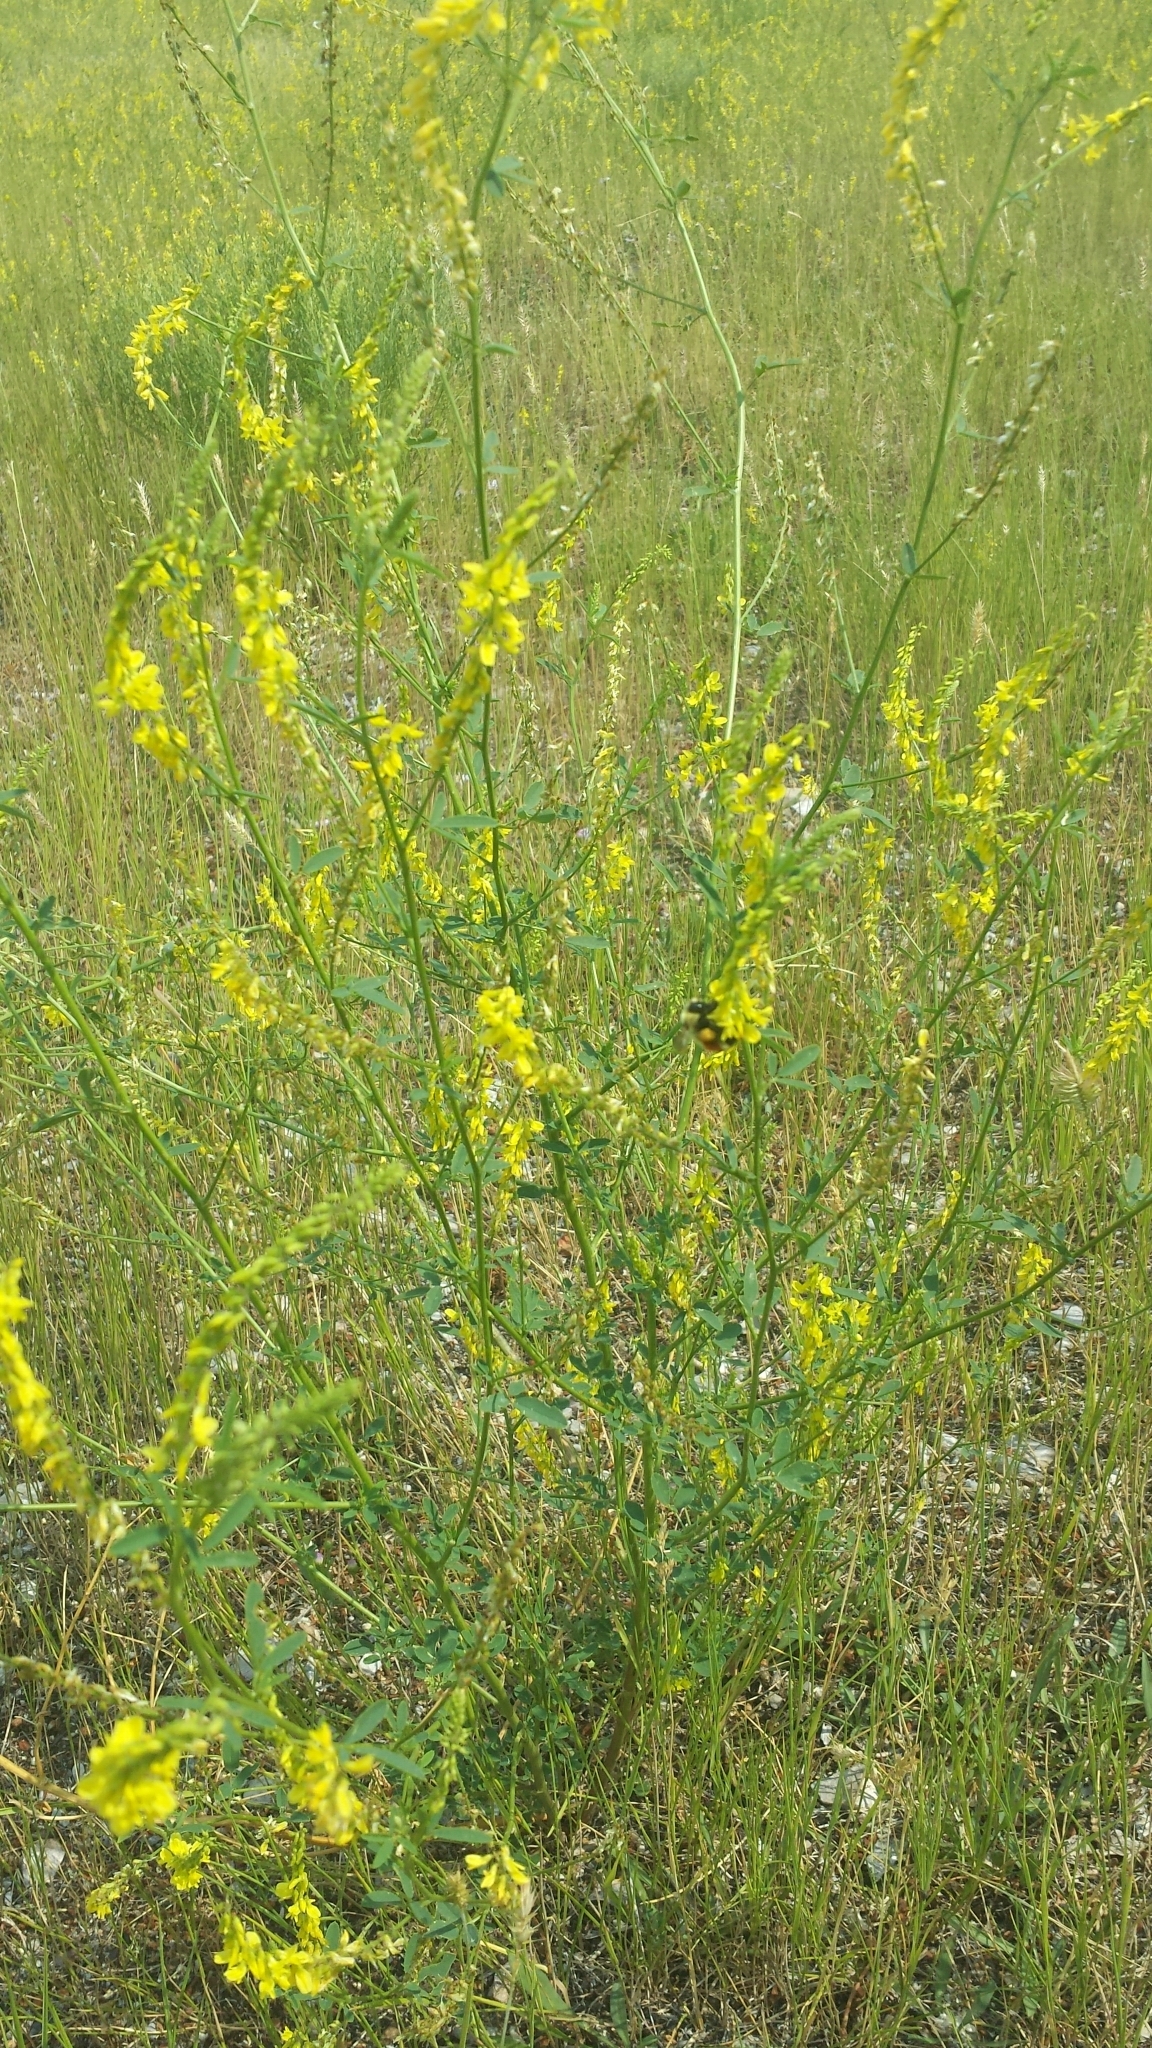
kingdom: Plantae
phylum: Tracheophyta
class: Magnoliopsida
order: Fabales
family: Fabaceae
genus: Melilotus
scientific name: Melilotus officinalis
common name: Sweetclover
